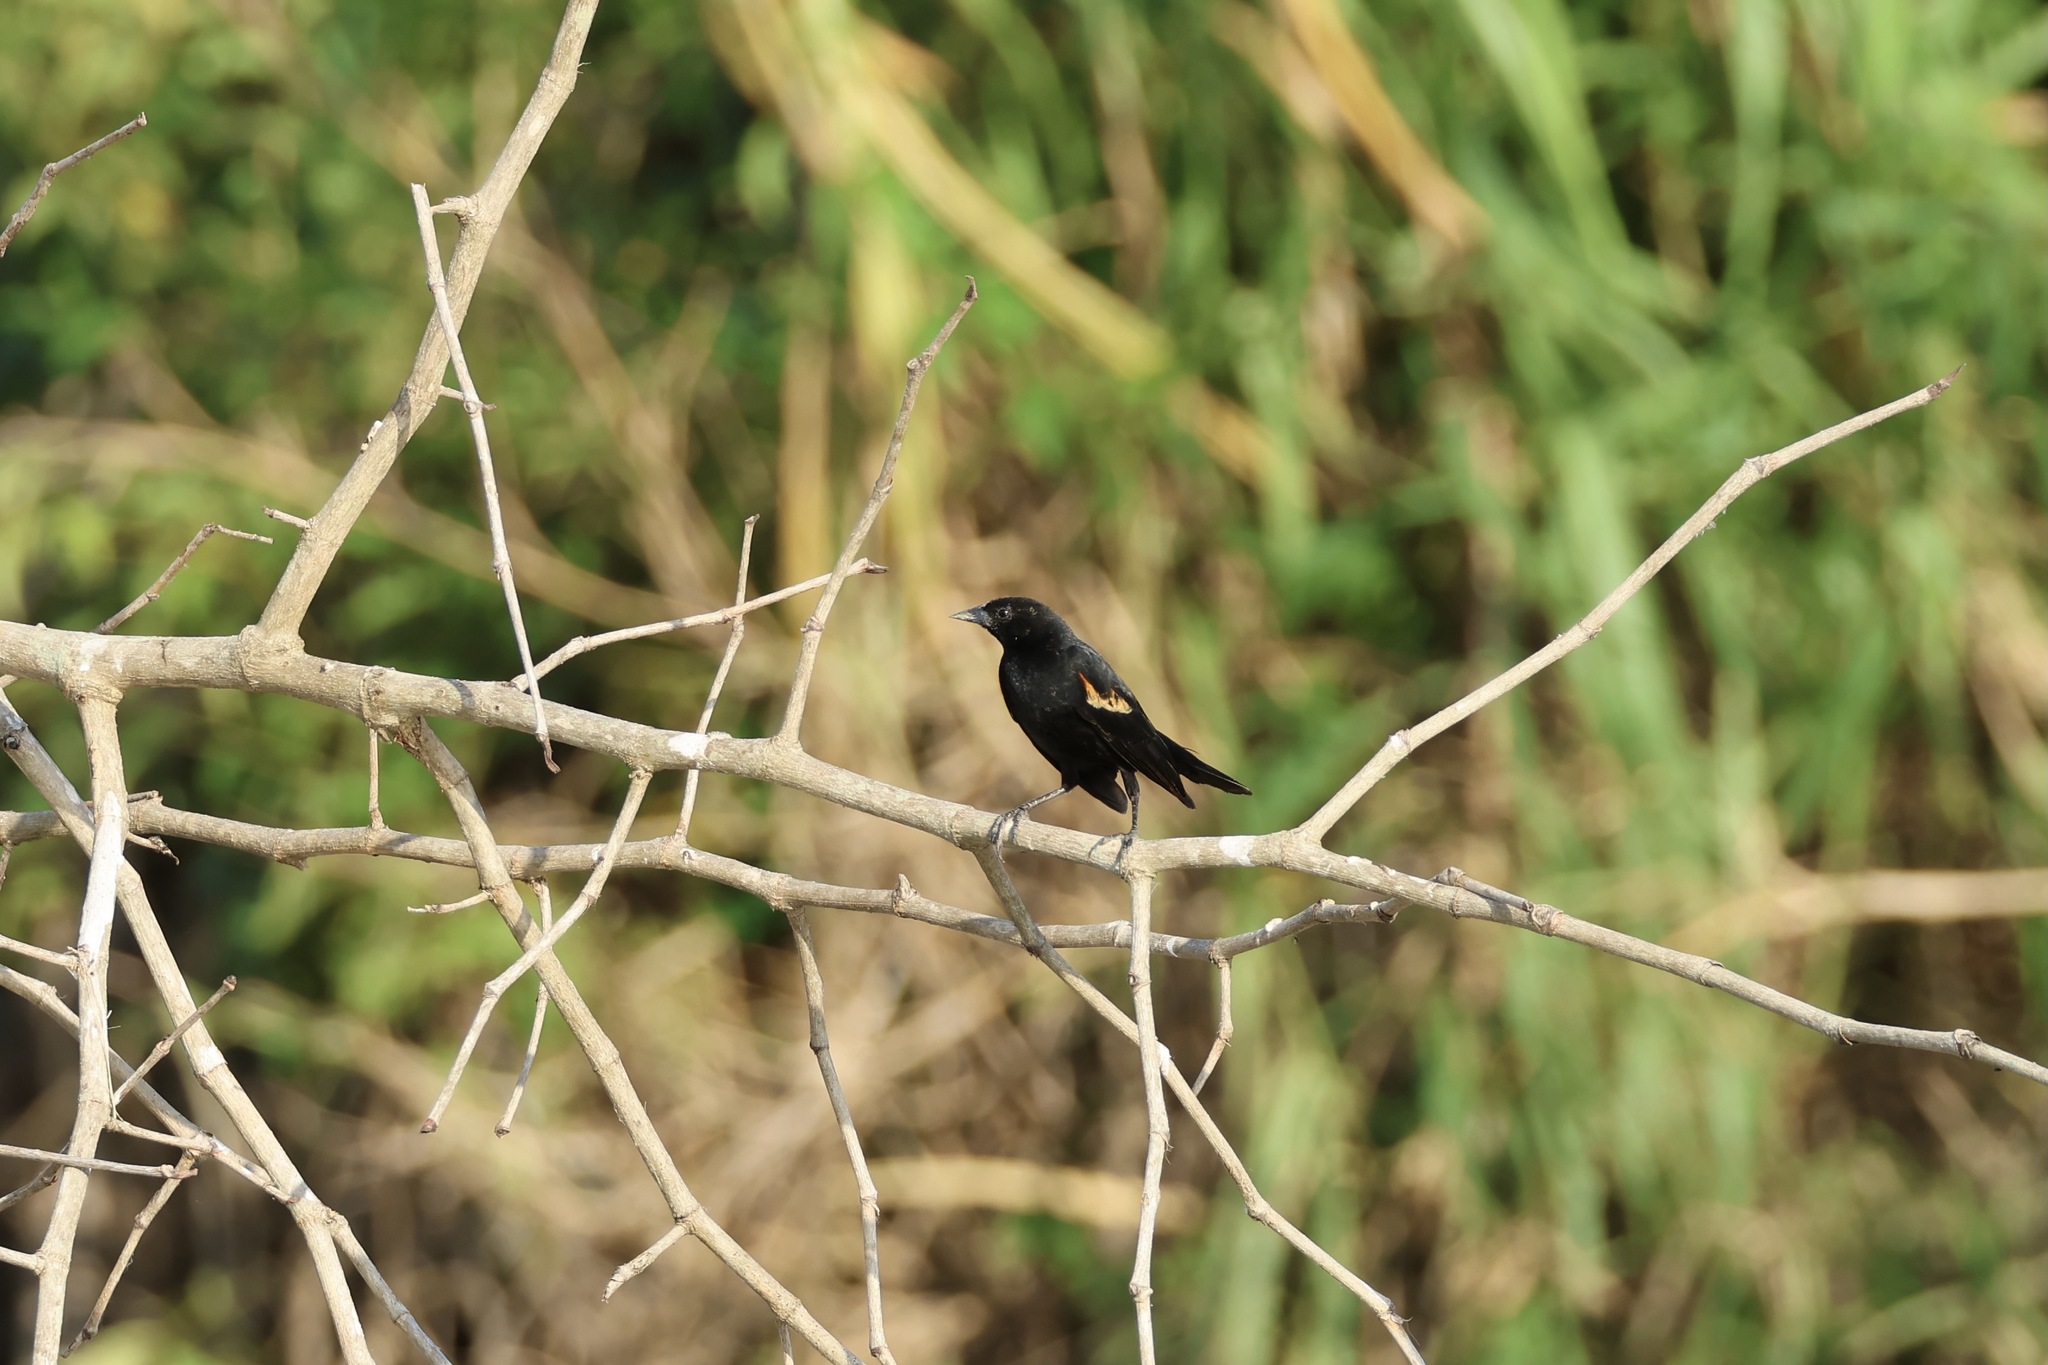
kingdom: Animalia
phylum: Chordata
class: Aves
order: Passeriformes
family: Icteridae
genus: Agelaius
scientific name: Agelaius phoeniceus
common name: Red-winged blackbird
